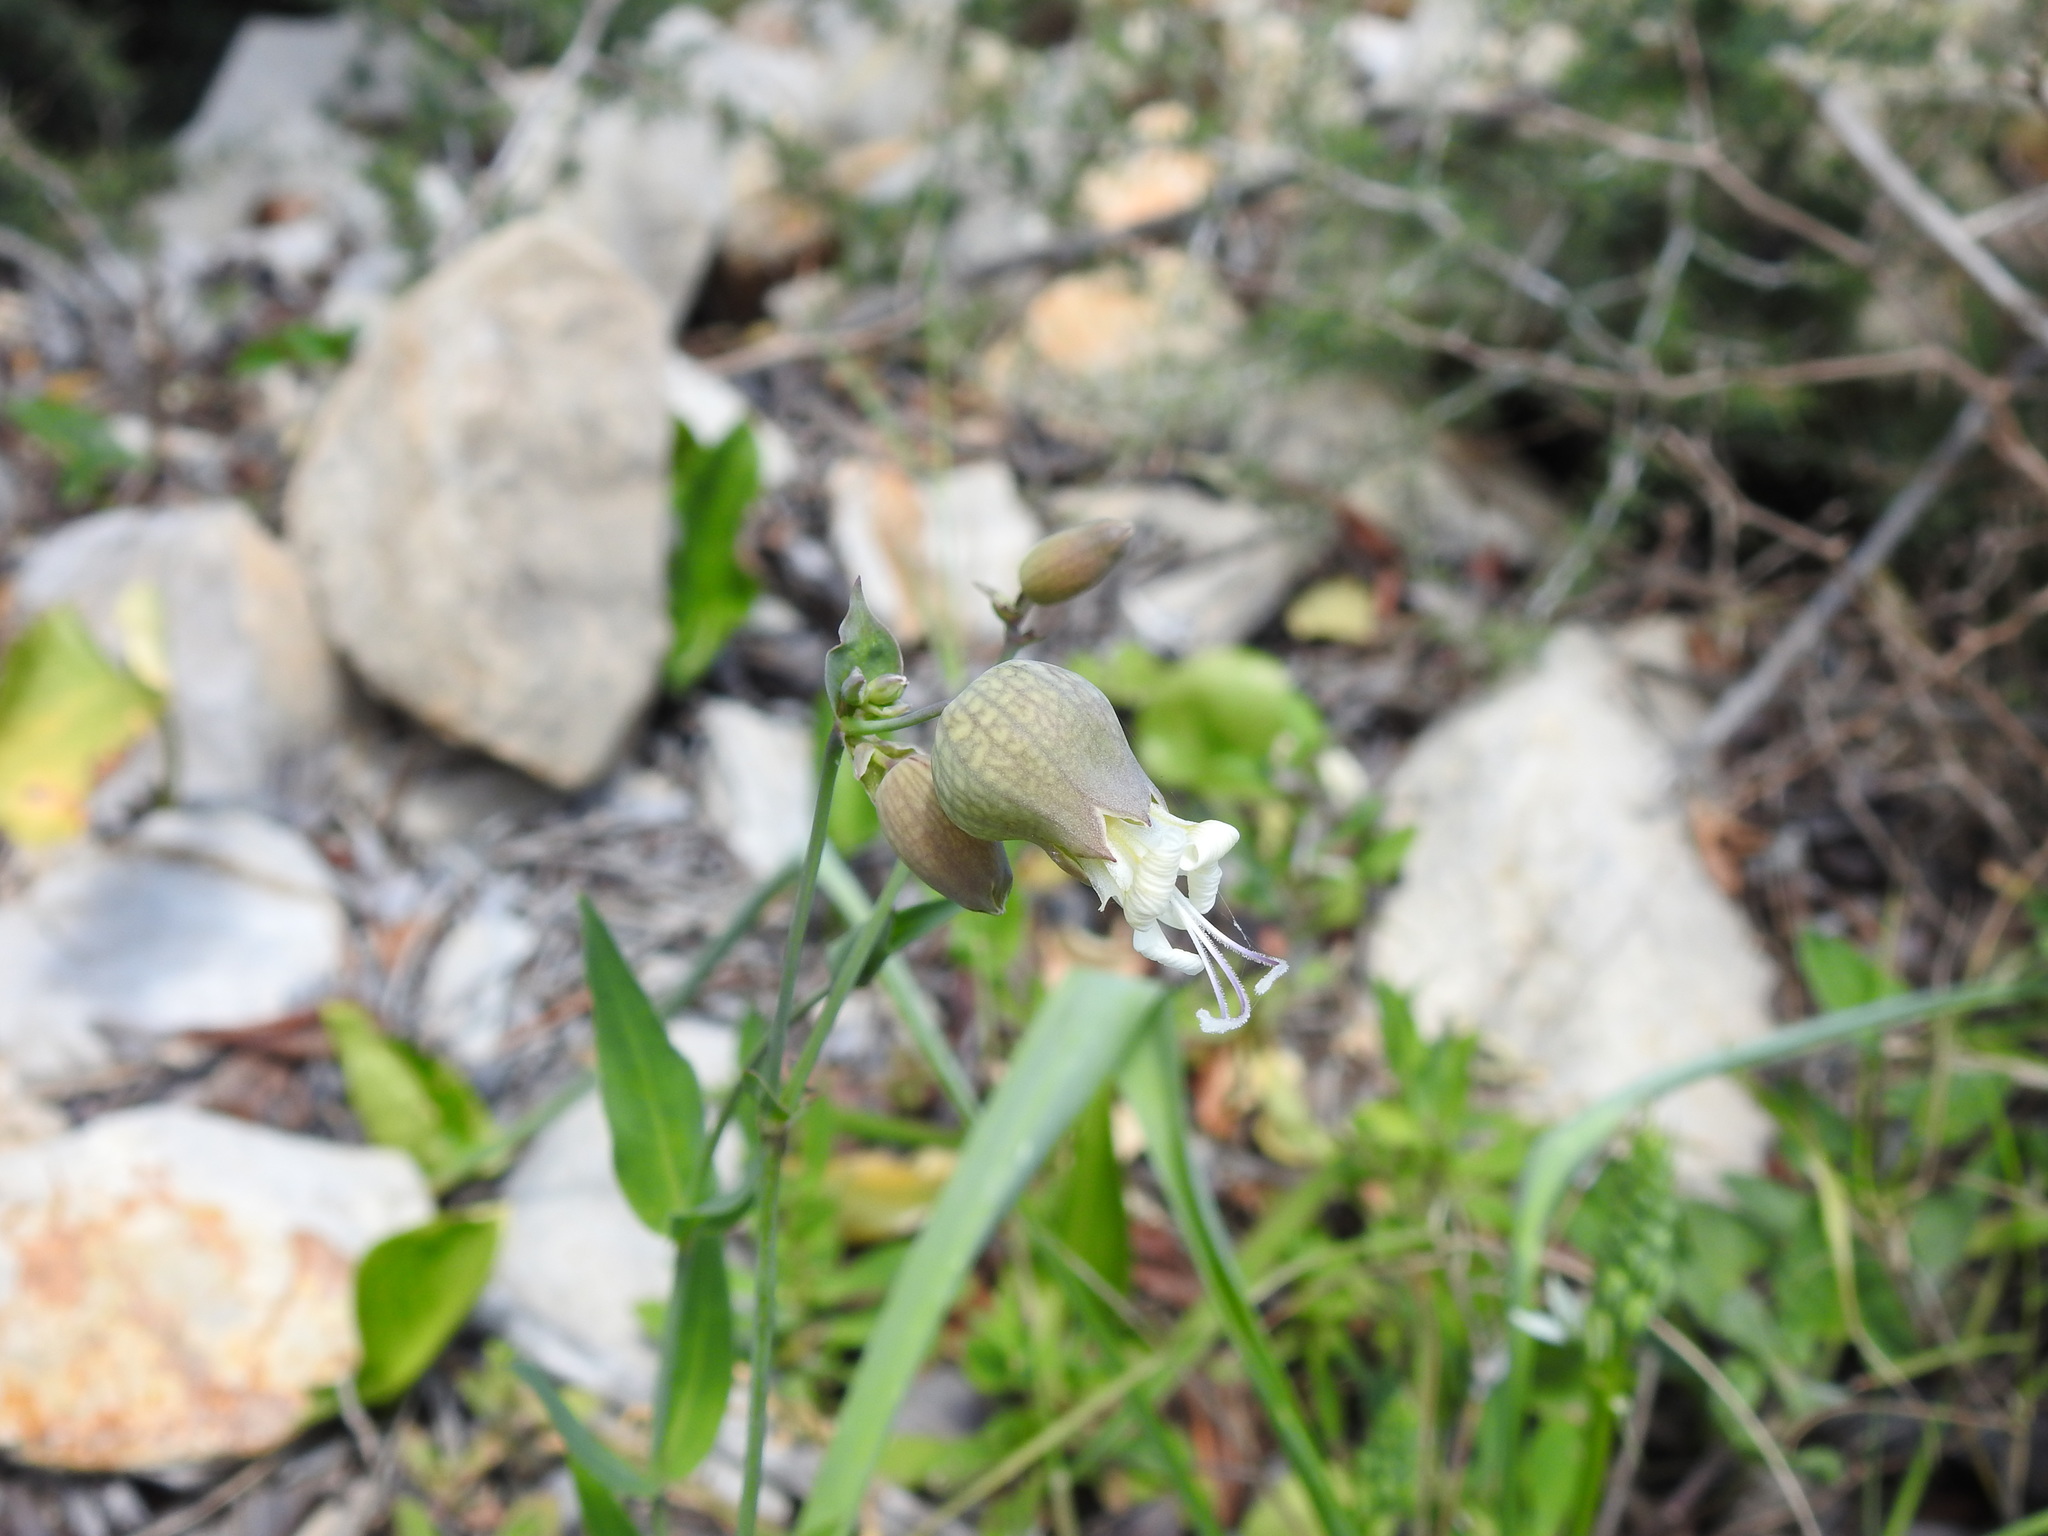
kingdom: Plantae
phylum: Tracheophyta
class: Magnoliopsida
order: Caryophyllales
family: Caryophyllaceae
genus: Silene
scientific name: Silene vulgaris
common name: Bladder campion
